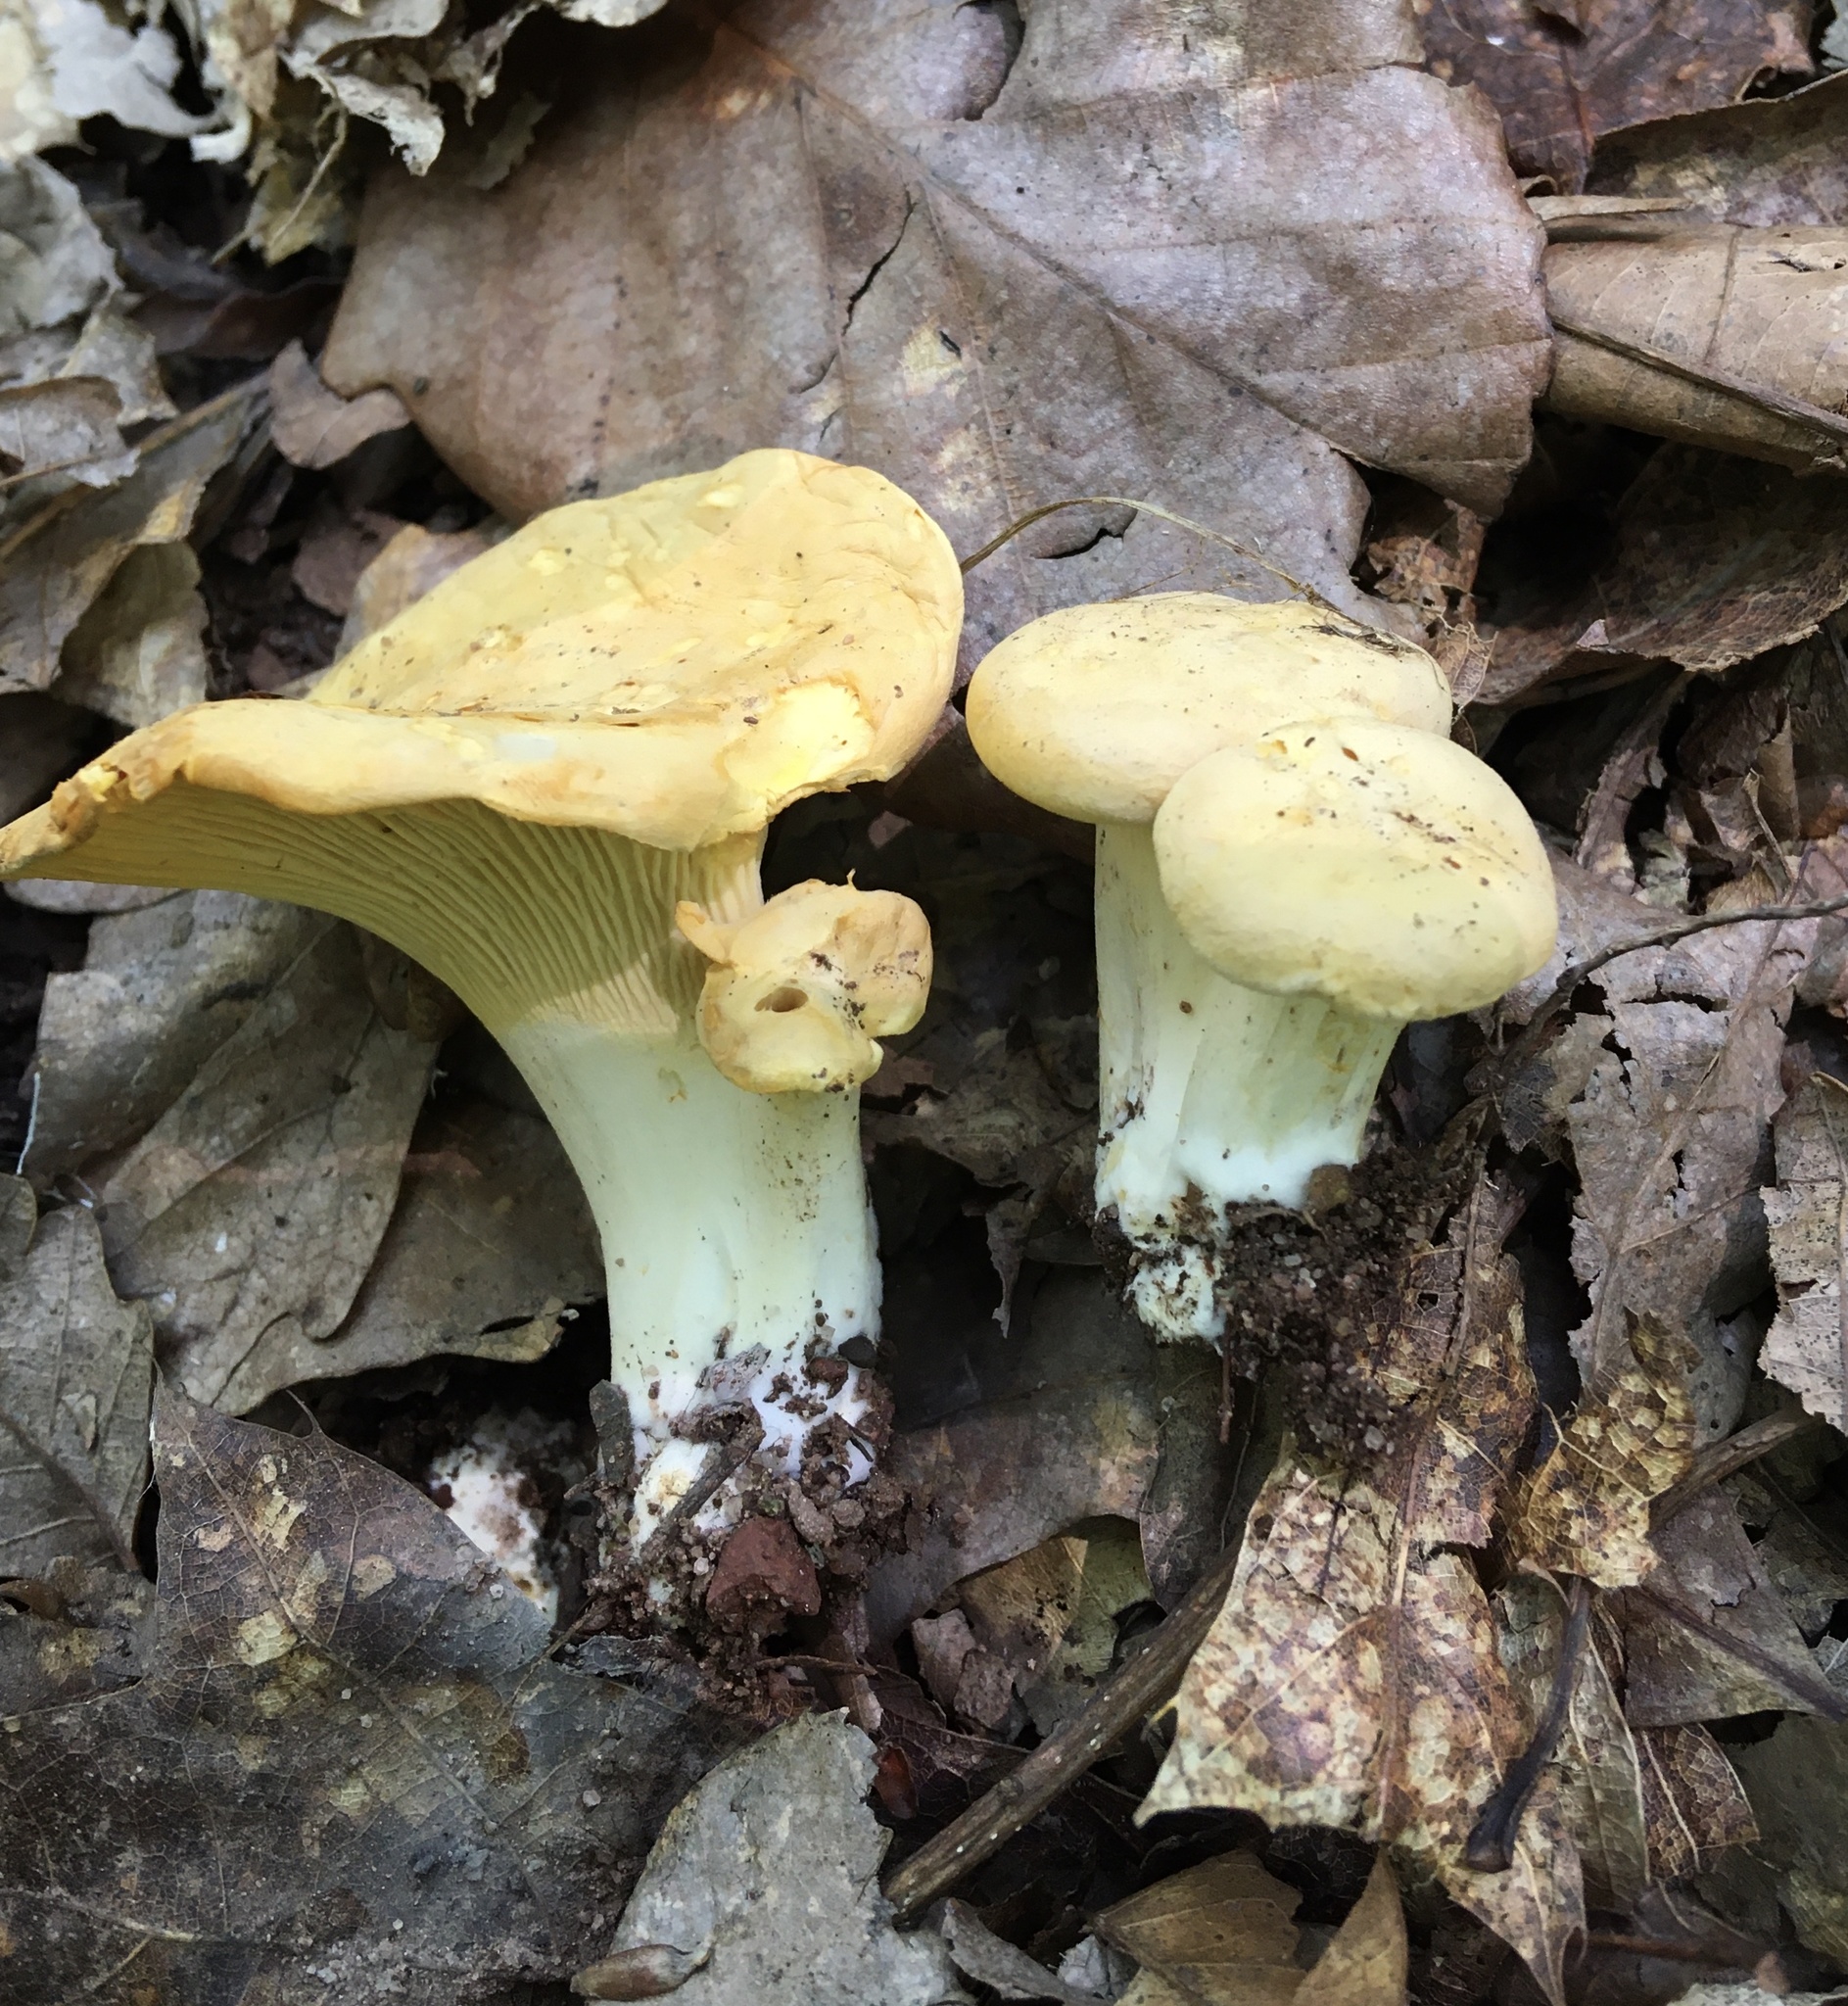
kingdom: Fungi
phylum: Basidiomycota
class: Agaricomycetes
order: Cantharellales
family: Hydnaceae
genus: Cantharellus
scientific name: Cantharellus lateritius
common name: Smooth chanterelle
